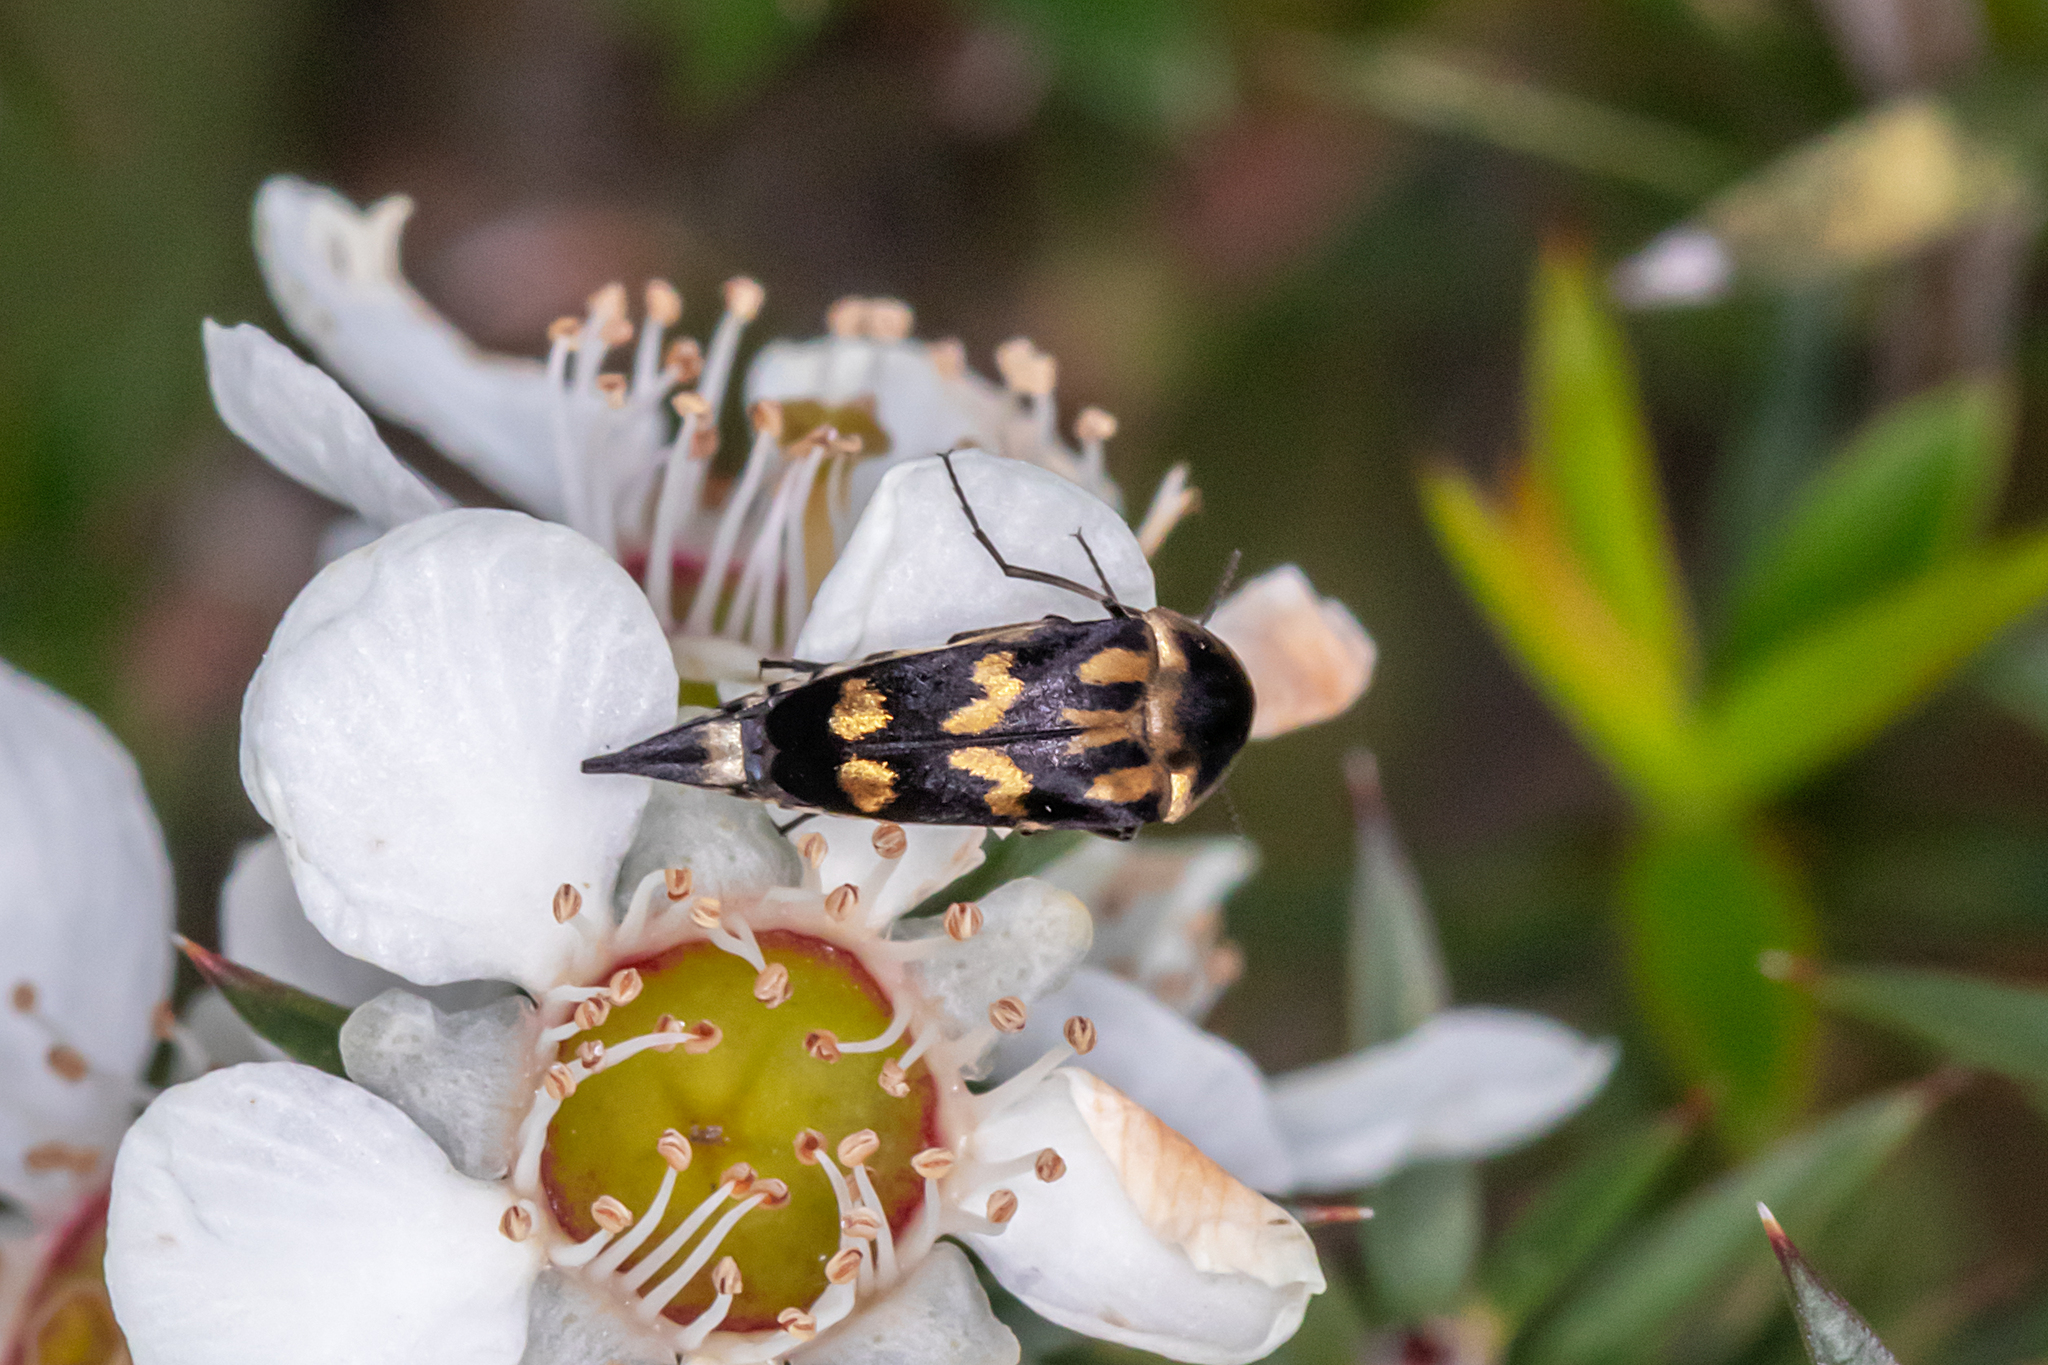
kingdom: Animalia
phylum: Arthropoda
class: Insecta
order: Coleoptera
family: Mordellidae
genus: Mordella
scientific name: Mordella
